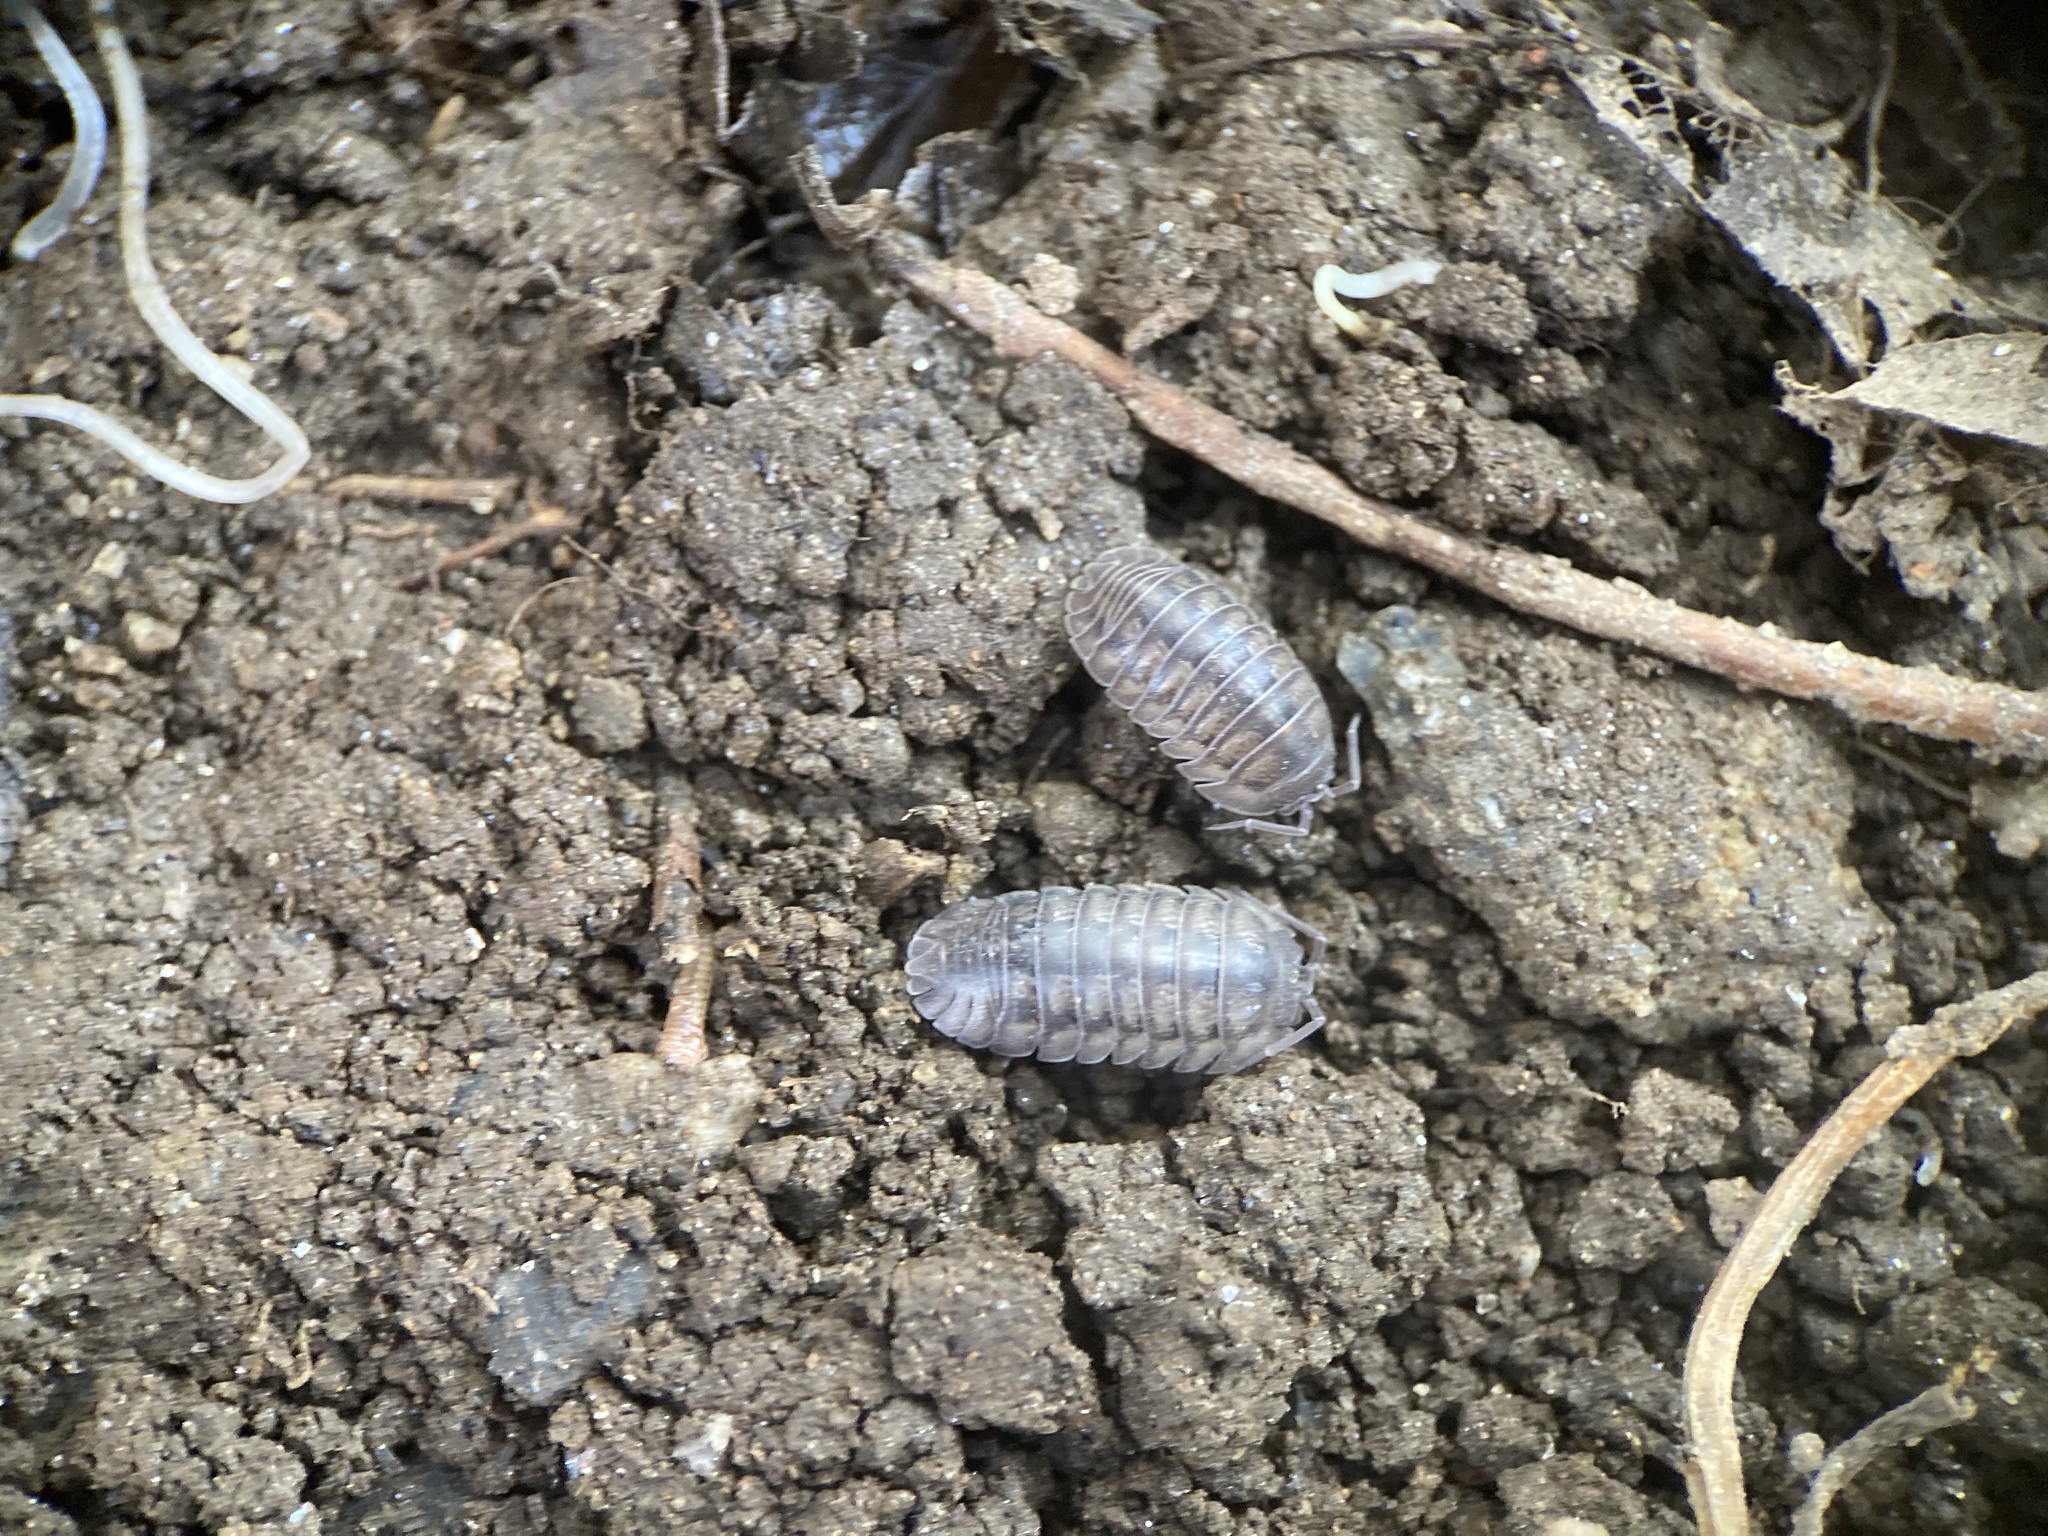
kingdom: Animalia
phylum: Arthropoda
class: Malacostraca
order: Isopoda
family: Armadillidiidae
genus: Armadillidium
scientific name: Armadillidium nasatum
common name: Isopod
